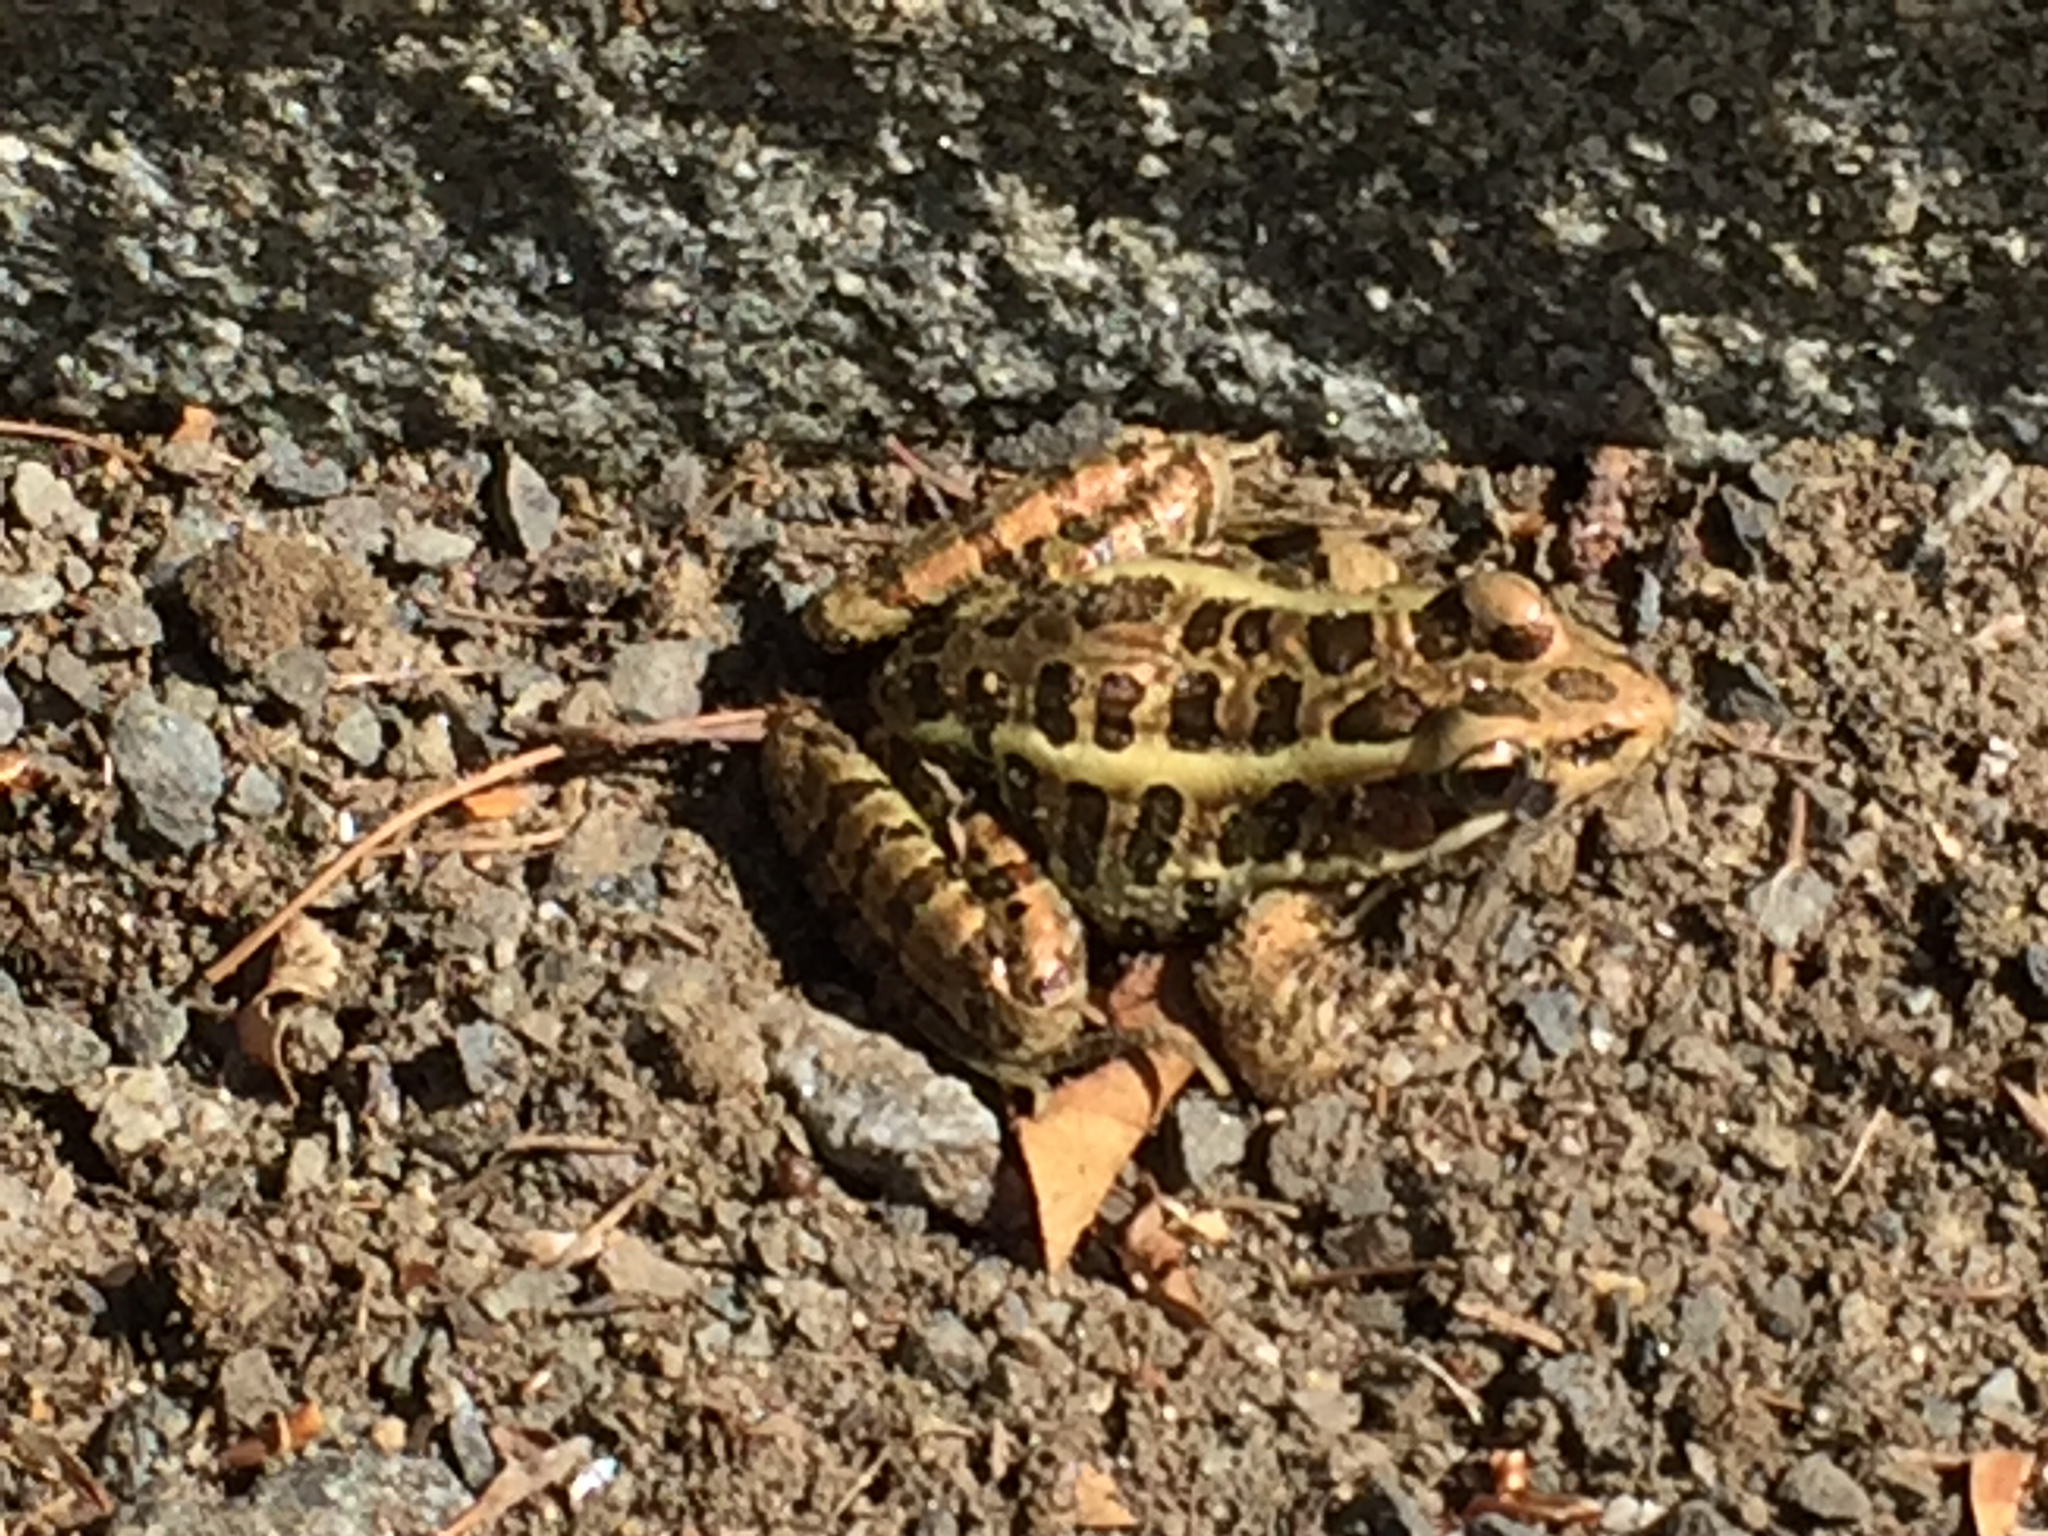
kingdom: Animalia
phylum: Chordata
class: Amphibia
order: Anura
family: Ranidae
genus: Lithobates
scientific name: Lithobates palustris
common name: Pickerel frog
